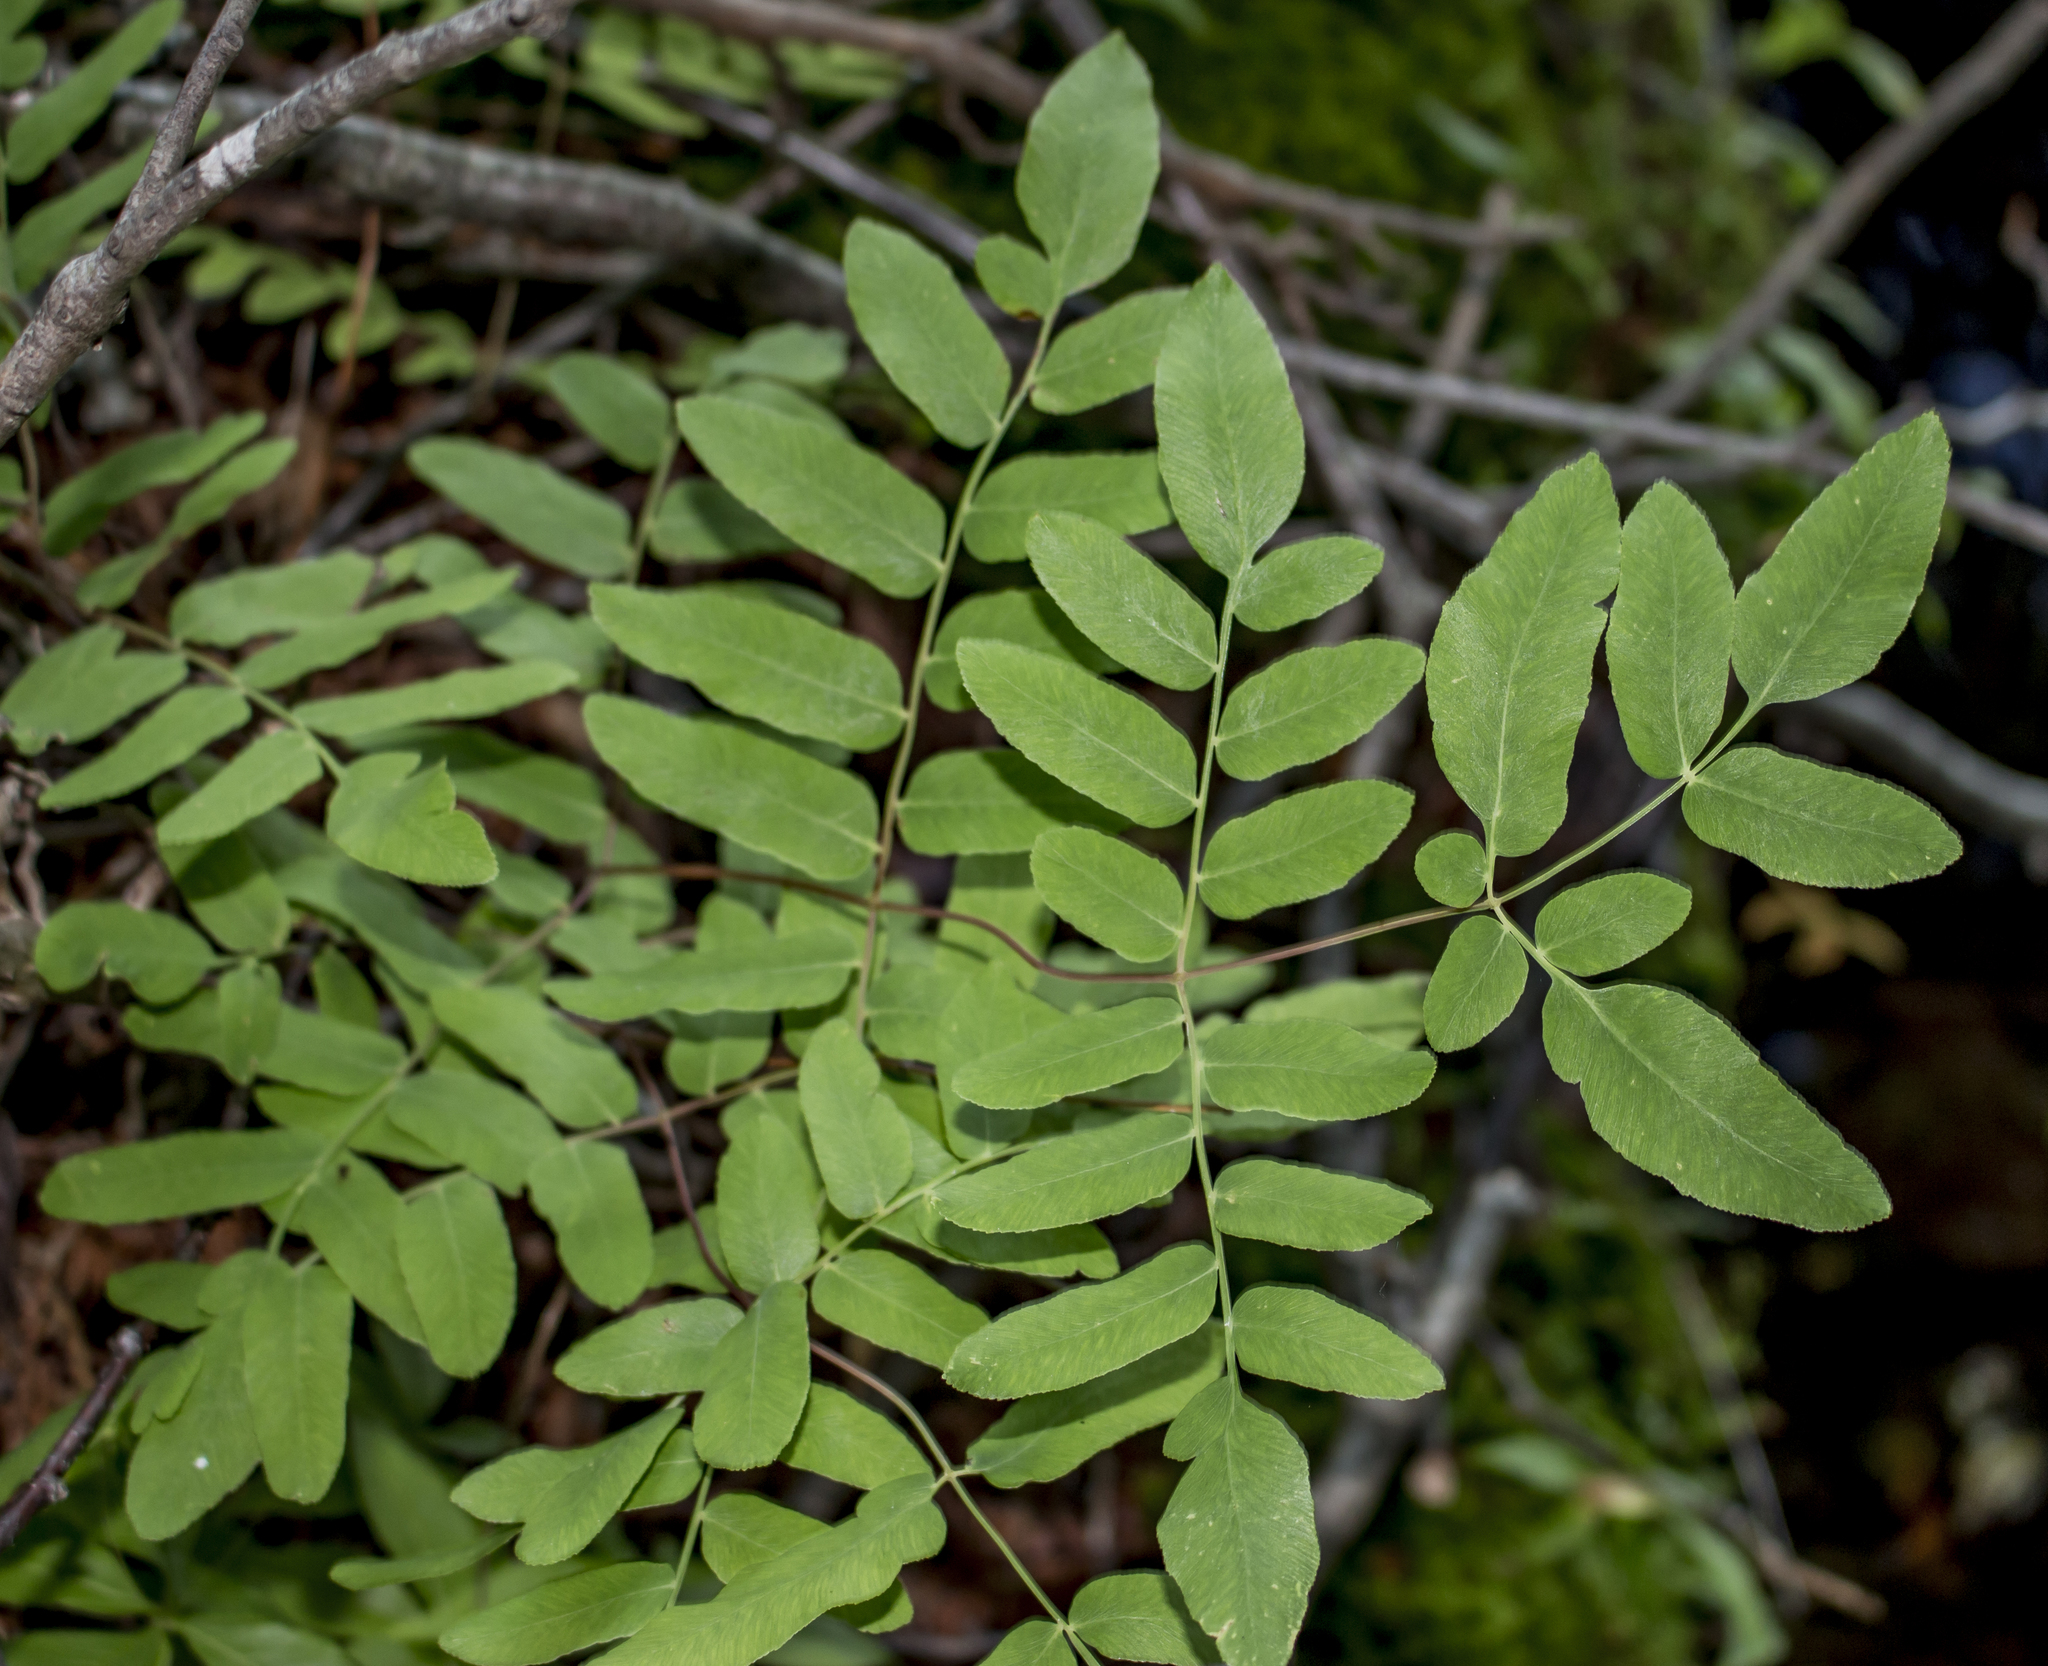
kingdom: Plantae
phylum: Tracheophyta
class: Polypodiopsida
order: Osmundales
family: Osmundaceae
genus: Osmunda
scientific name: Osmunda spectabilis
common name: American royal fern
